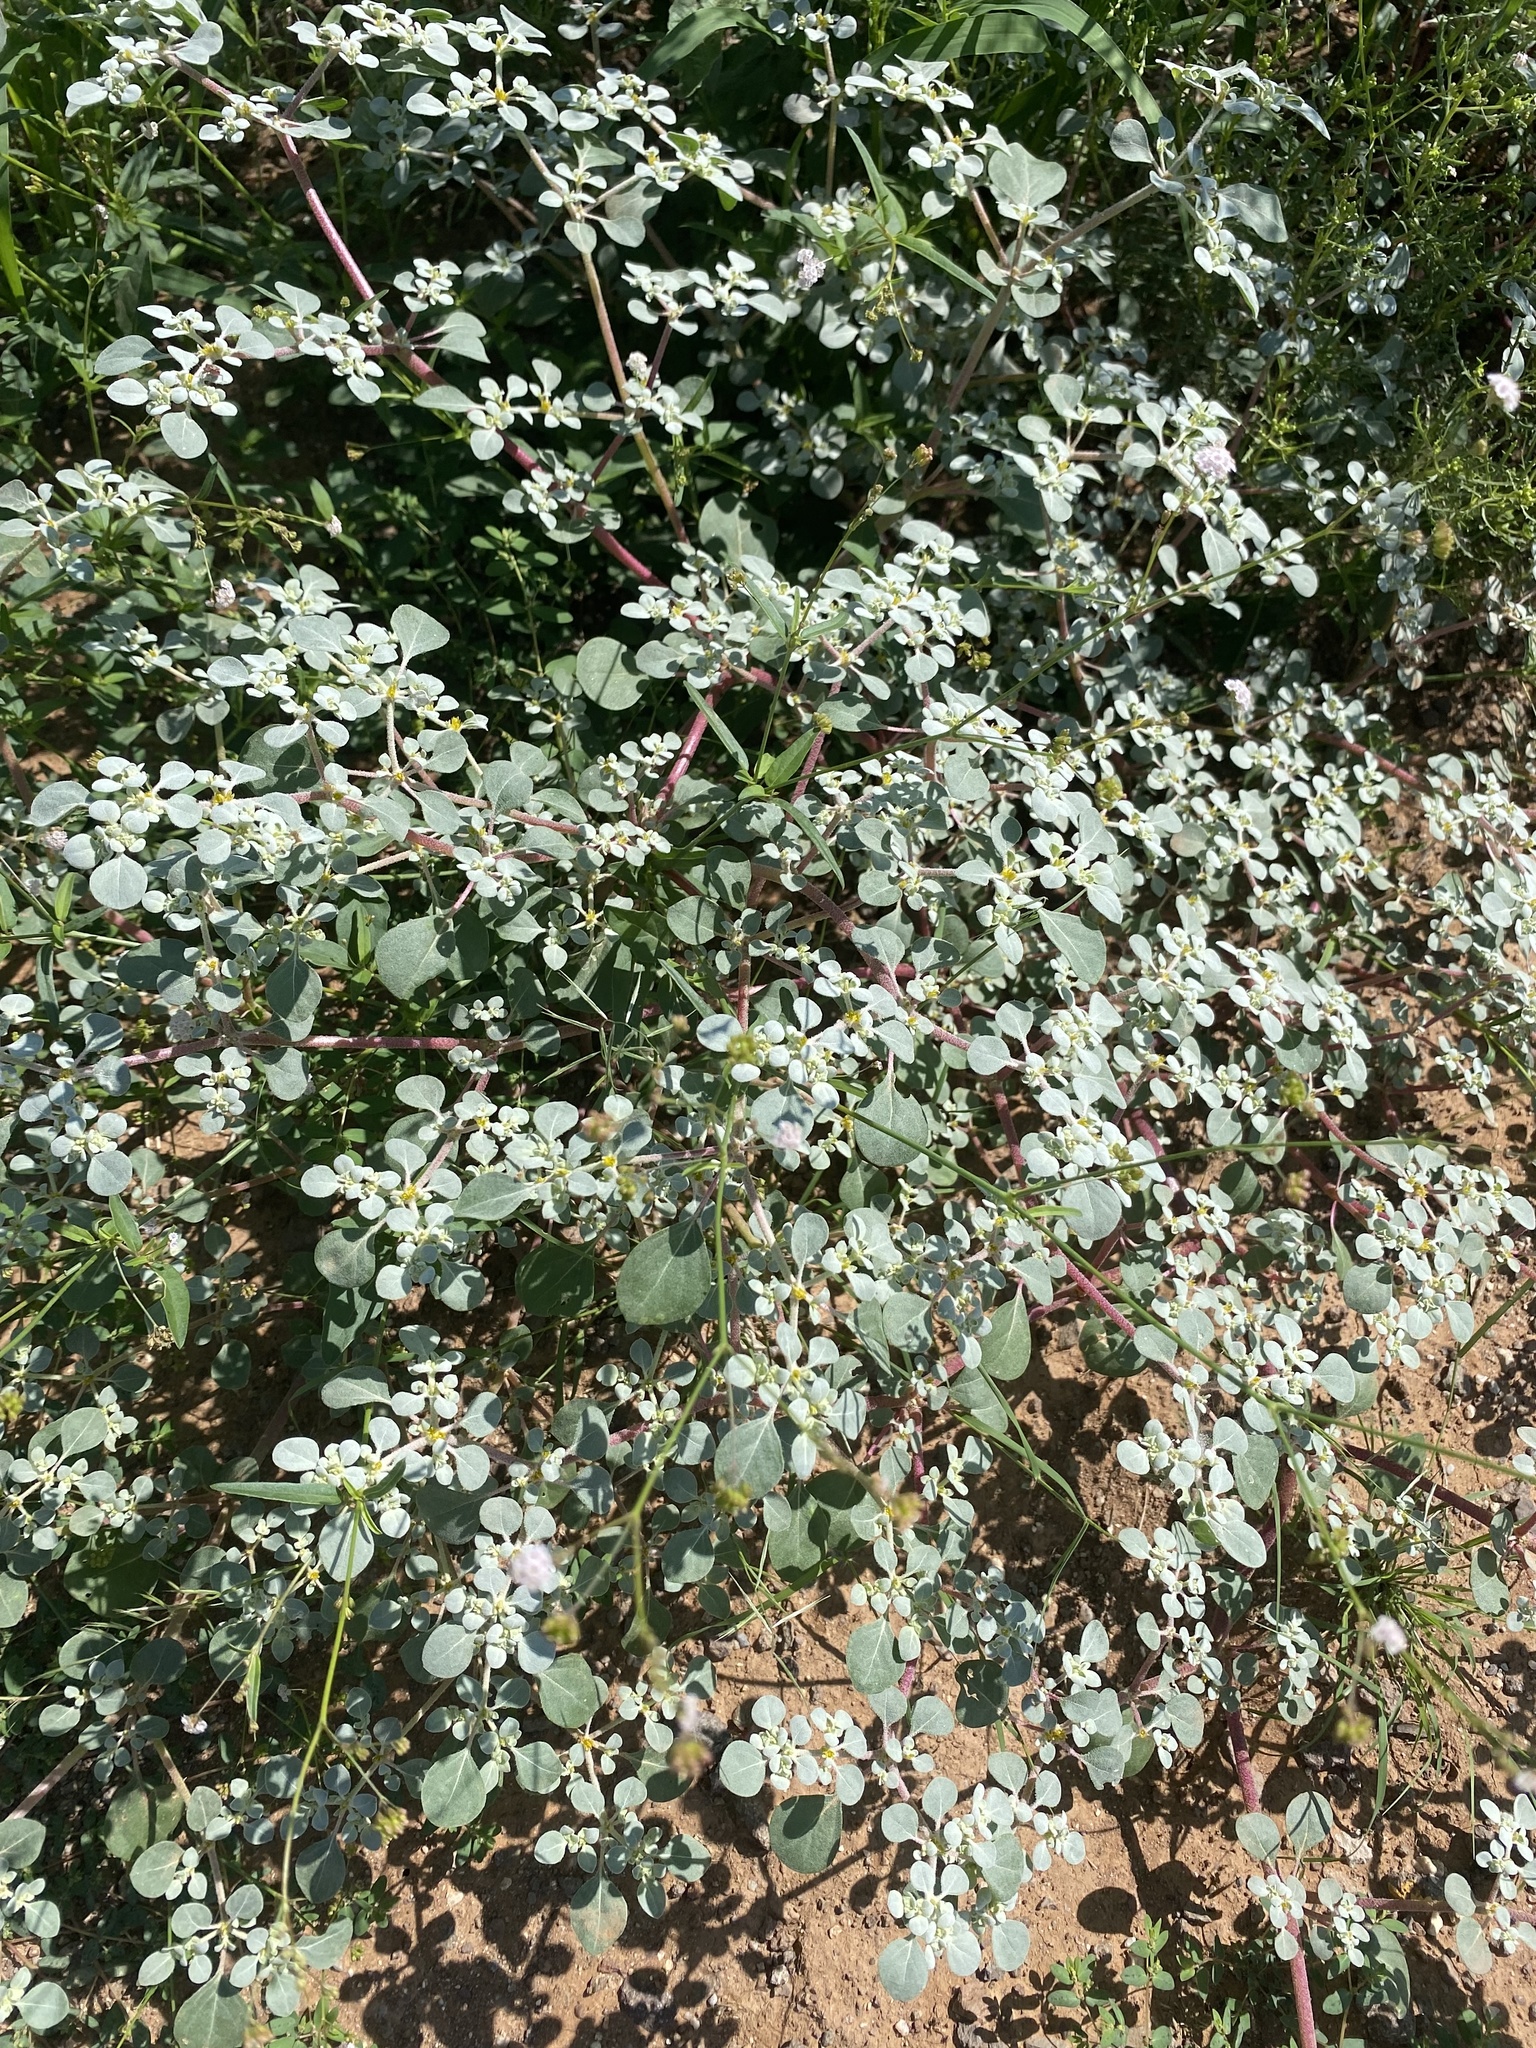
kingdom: Plantae
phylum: Tracheophyta
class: Magnoliopsida
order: Caryophyllales
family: Amaranthaceae
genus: Tidestromia
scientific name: Tidestromia lanuginosa
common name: Woolly tidestromia
